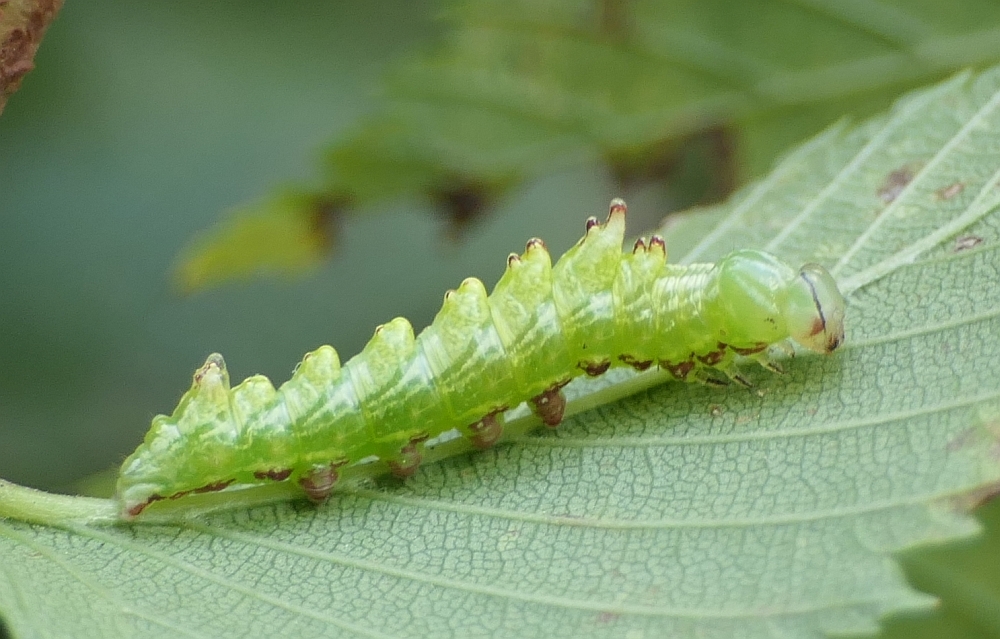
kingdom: Animalia
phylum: Arthropoda
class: Insecta
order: Lepidoptera
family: Notodontidae
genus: Nerice
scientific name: Nerice bidentata
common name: Double-toothed prominent
